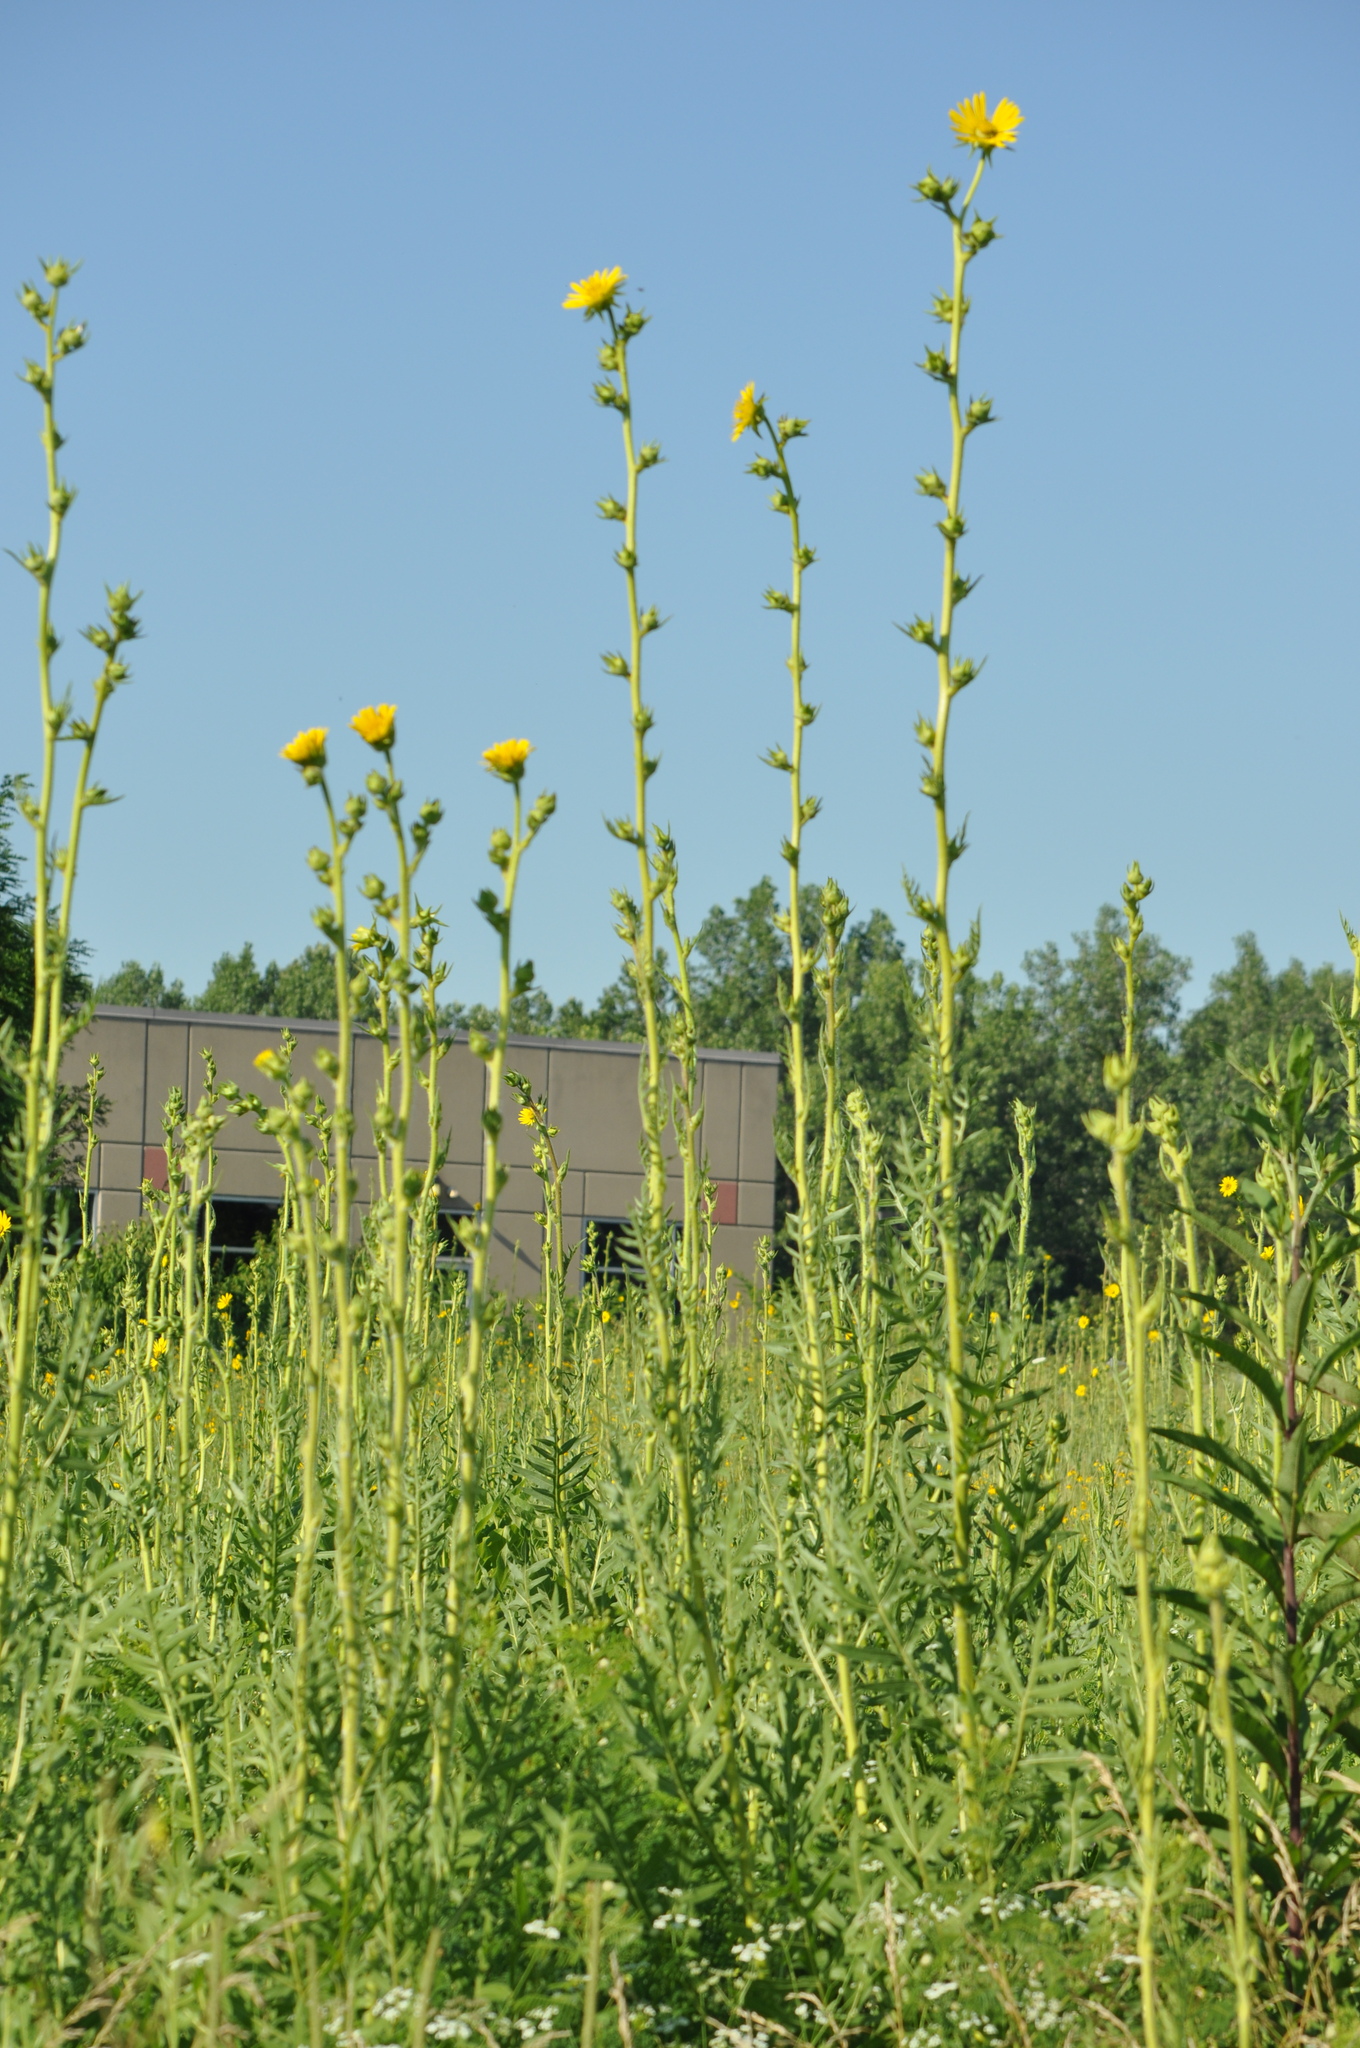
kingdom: Plantae
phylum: Tracheophyta
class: Magnoliopsida
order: Asterales
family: Asteraceae
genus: Silphium
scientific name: Silphium laciniatum
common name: Polarplant
